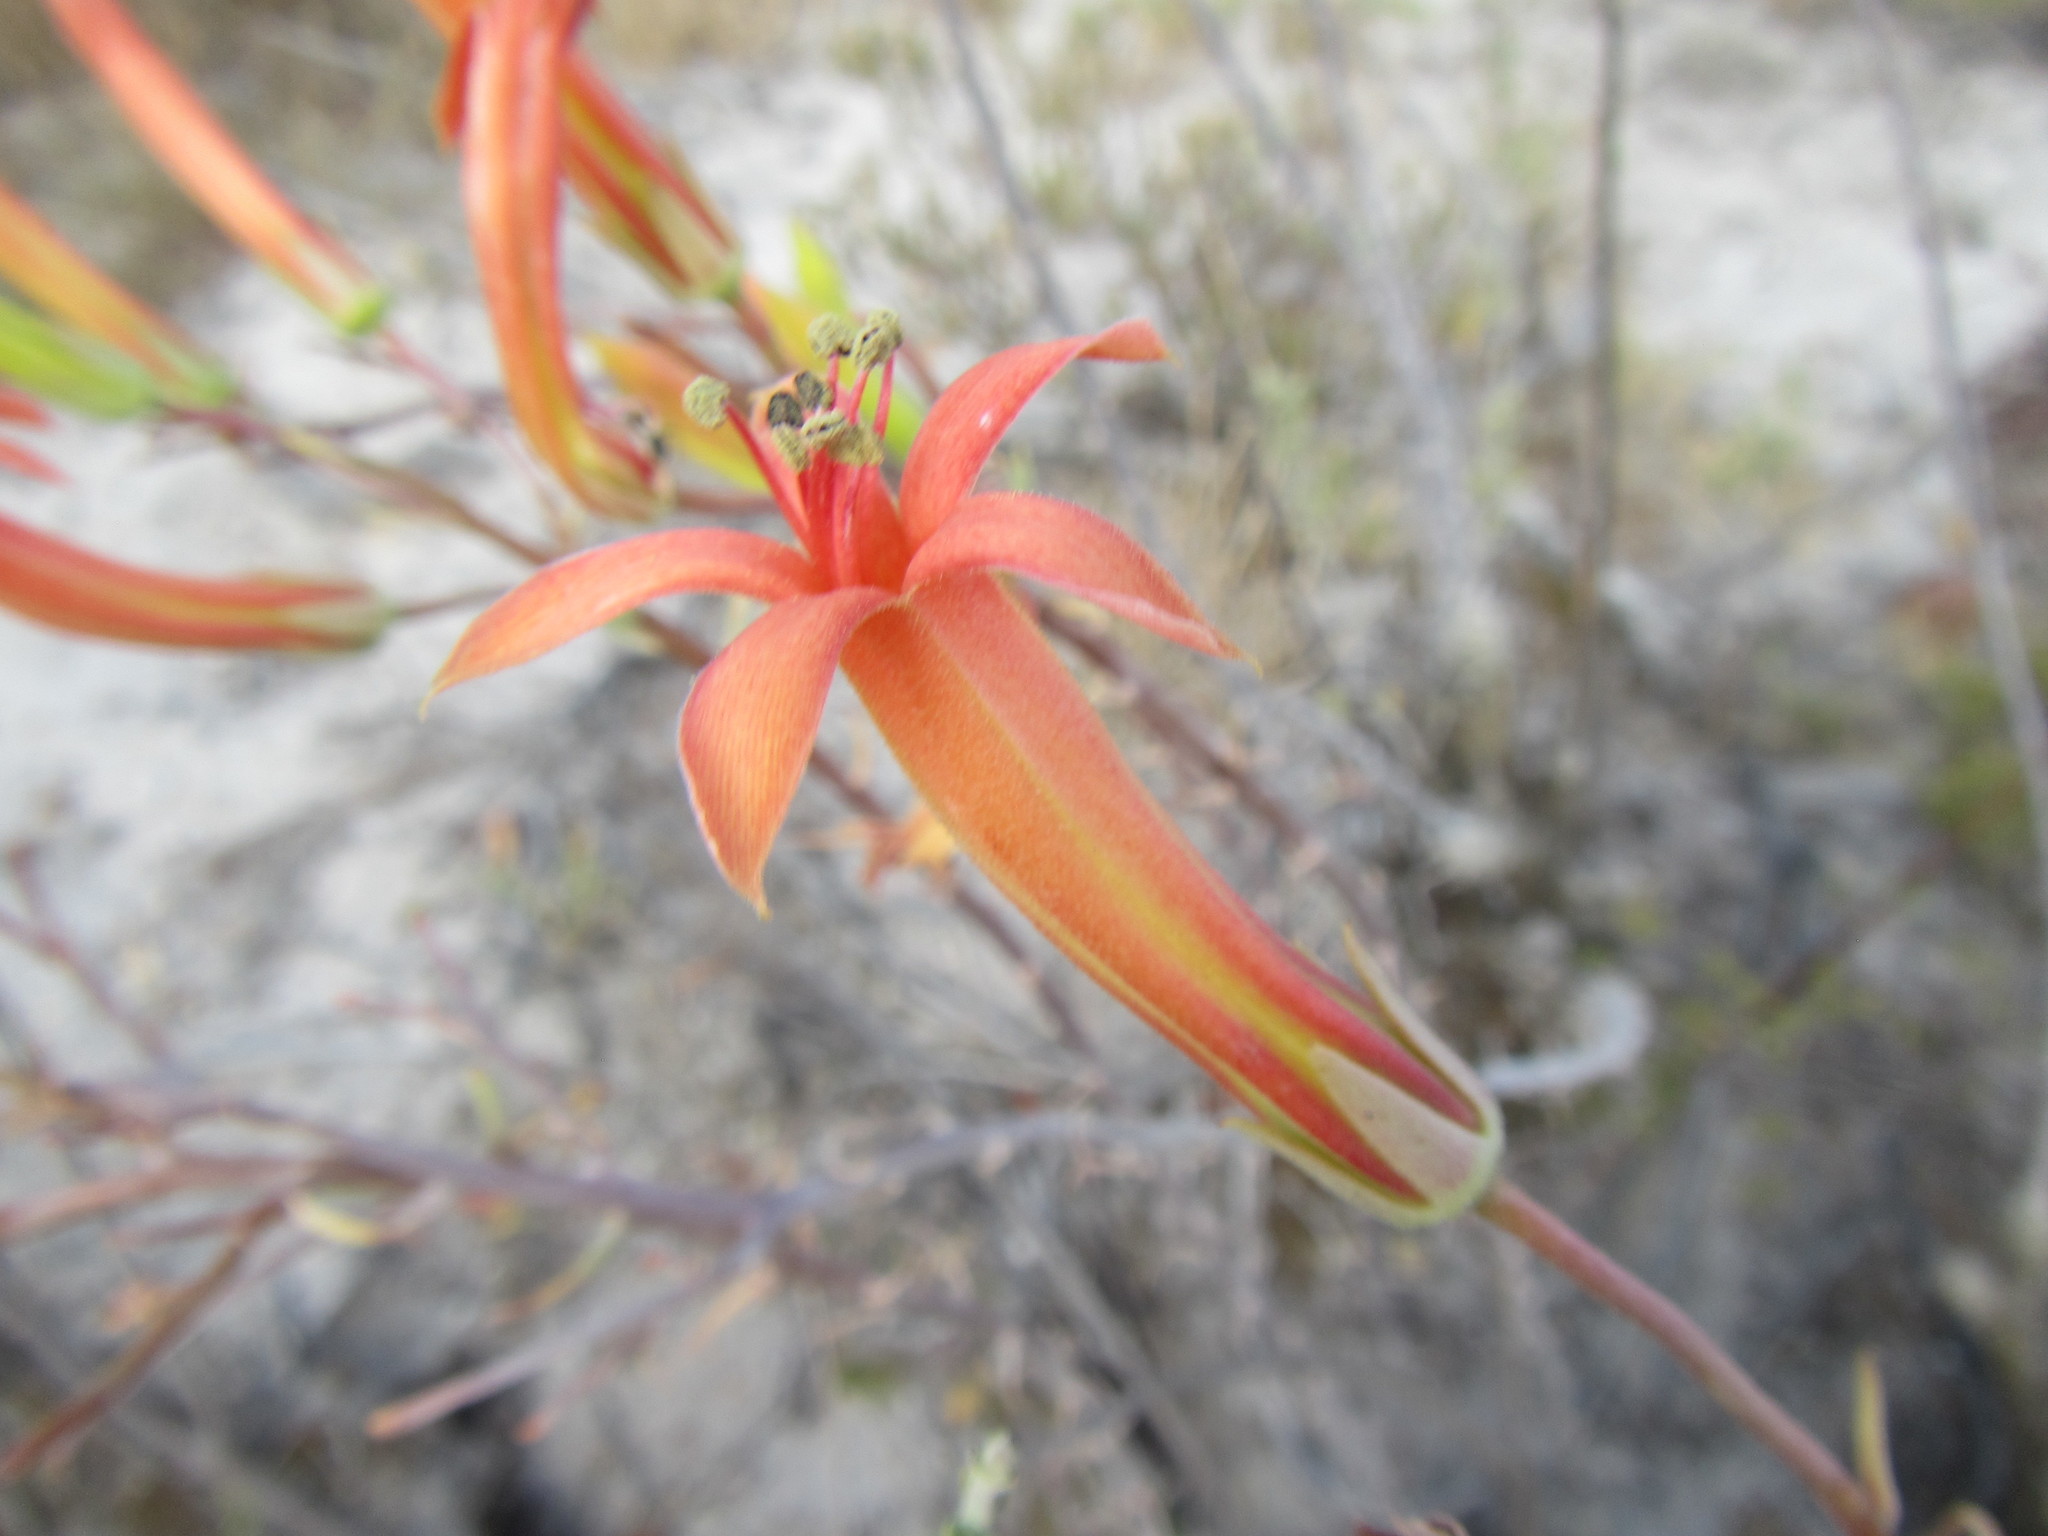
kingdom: Plantae
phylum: Tracheophyta
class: Magnoliopsida
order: Saxifragales
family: Crassulaceae
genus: Tylecodon
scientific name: Tylecodon grandiflorus
